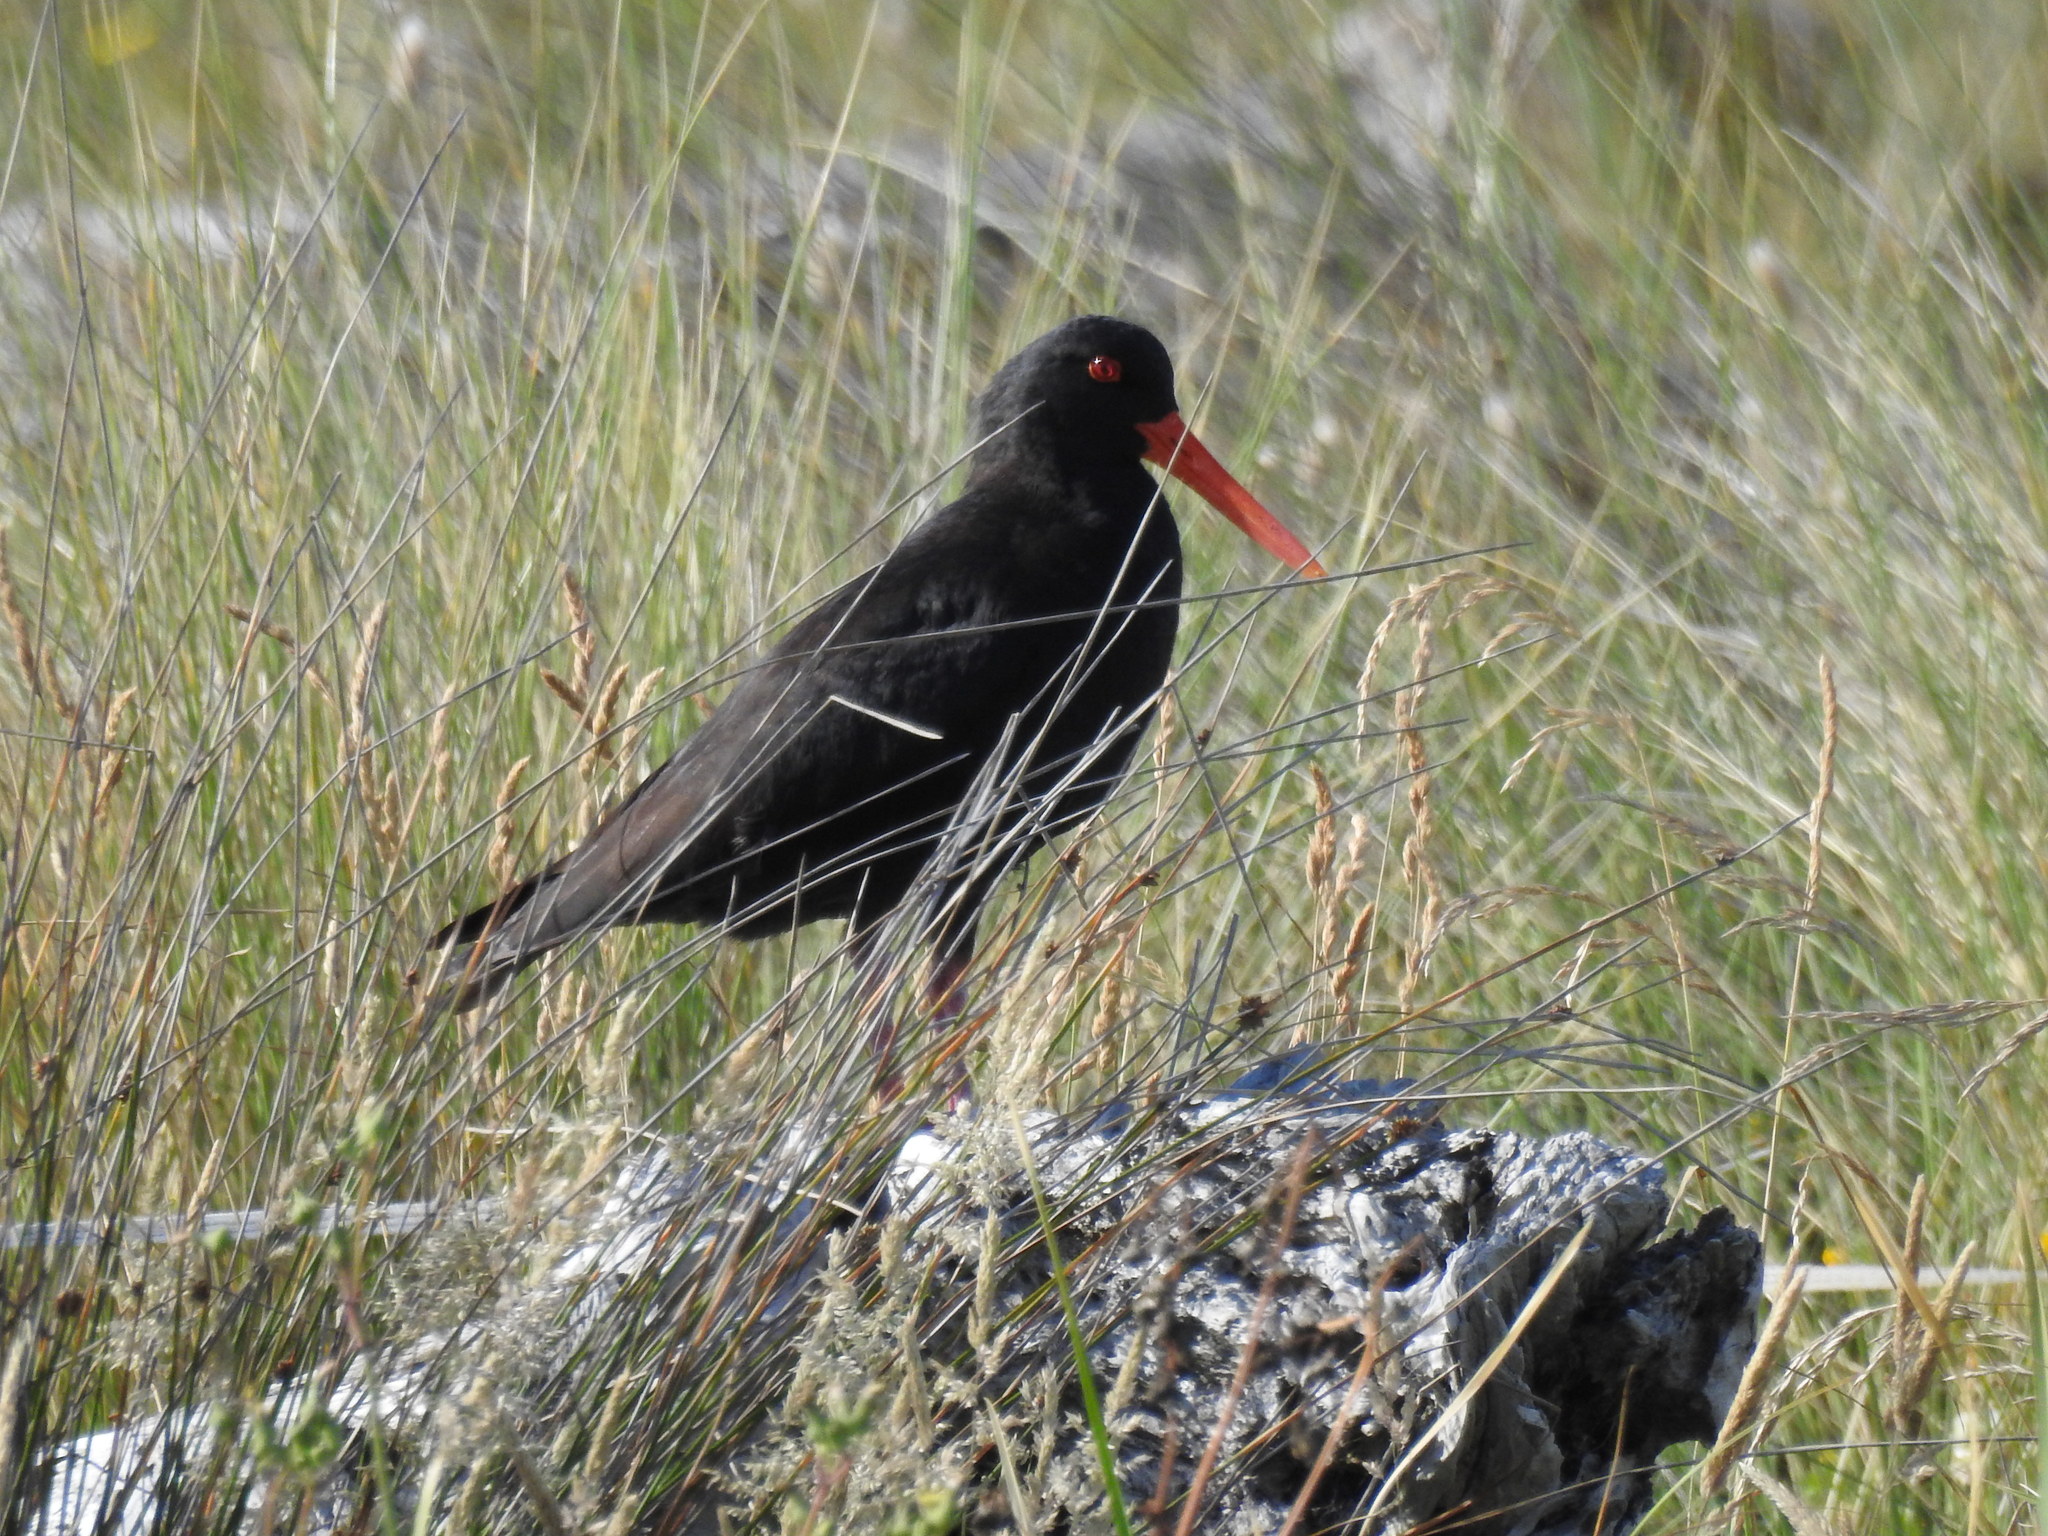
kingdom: Animalia
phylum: Chordata
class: Aves
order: Charadriiformes
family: Haematopodidae
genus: Haematopus
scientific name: Haematopus unicolor
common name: Variable oystercatcher
